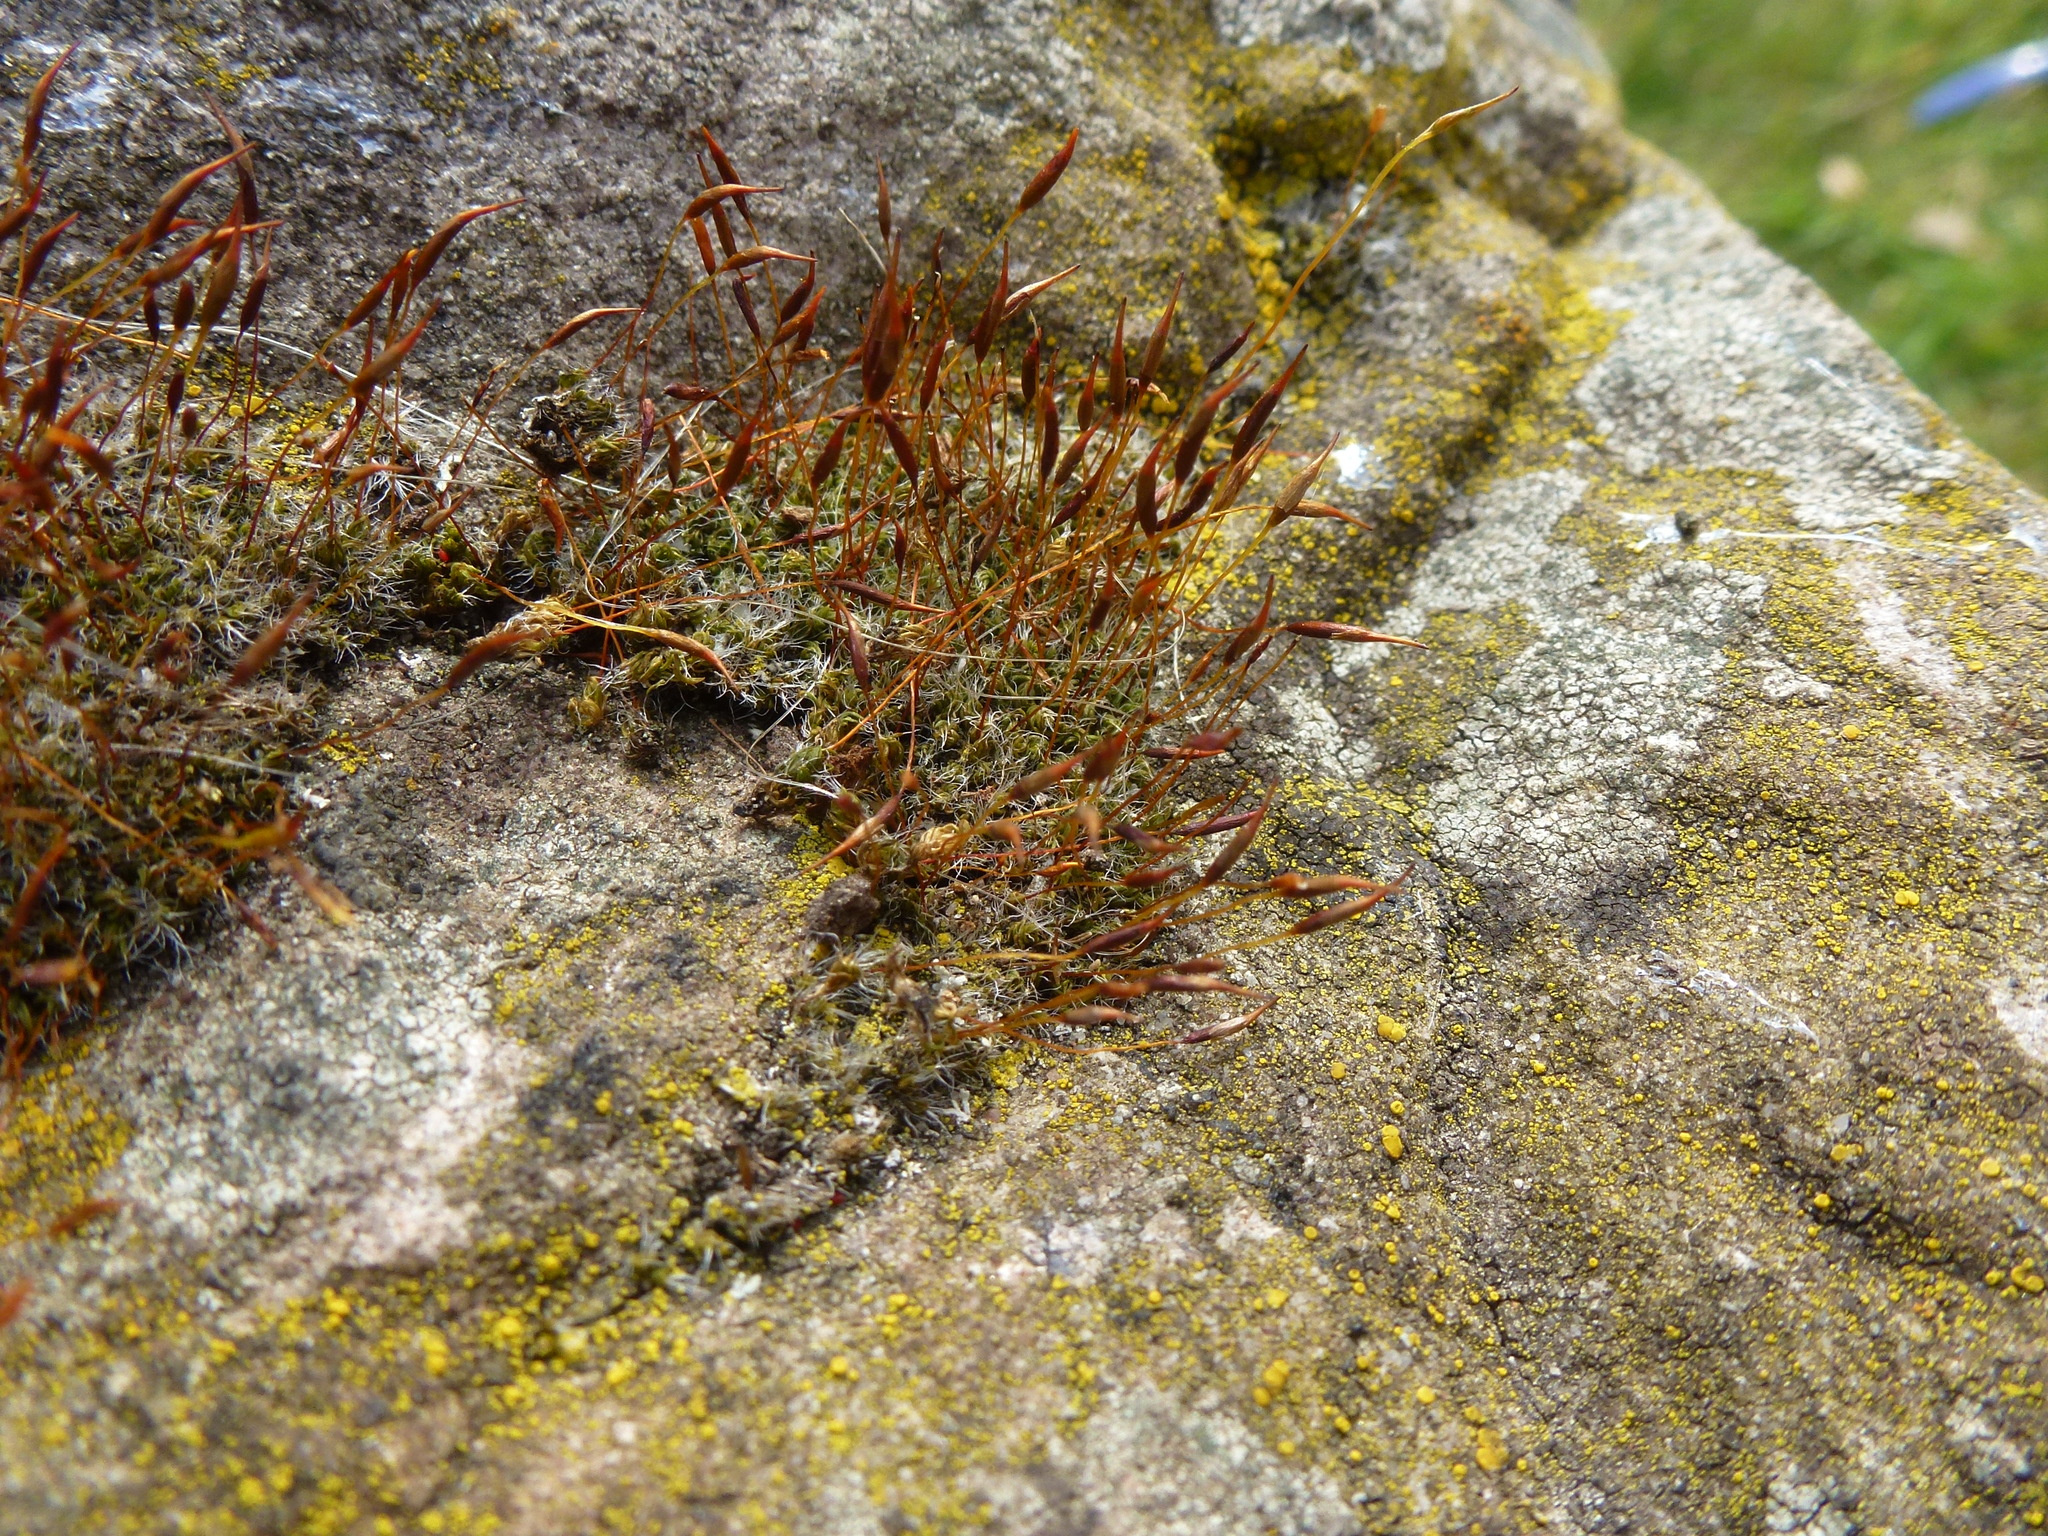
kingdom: Plantae
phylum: Bryophyta
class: Bryopsida
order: Pottiales
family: Pottiaceae
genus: Tortula
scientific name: Tortula muralis
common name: Wall screw-moss
